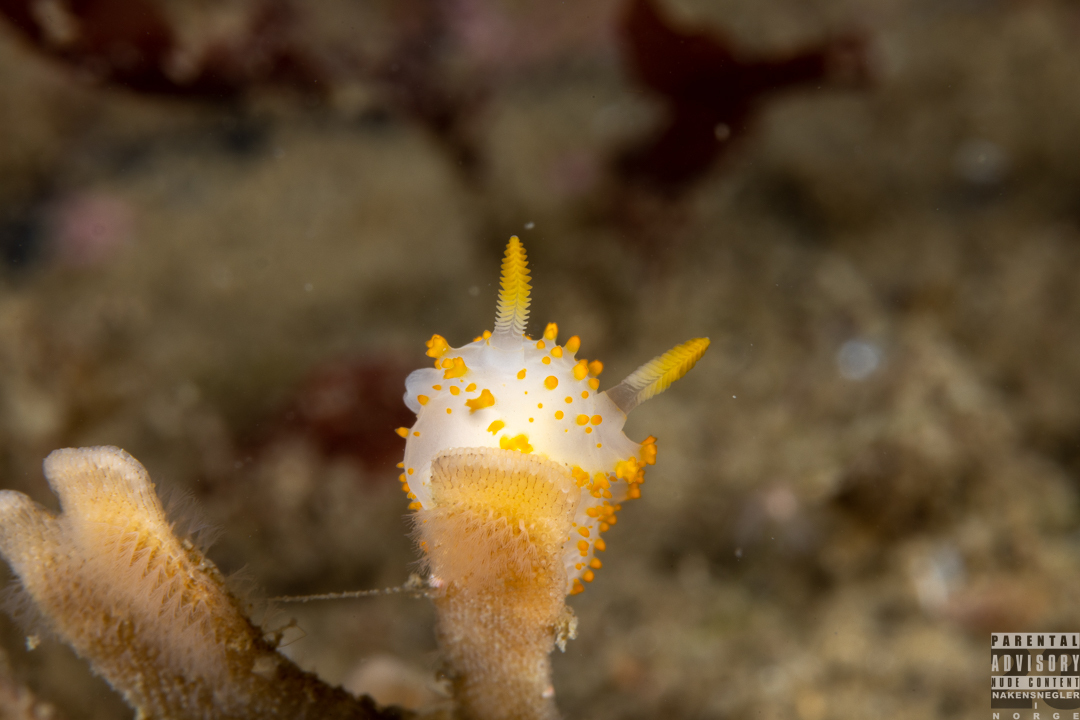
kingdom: Animalia
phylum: Mollusca
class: Gastropoda
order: Nudibranchia
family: Polyceridae
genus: Crimora
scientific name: Crimora papillata
